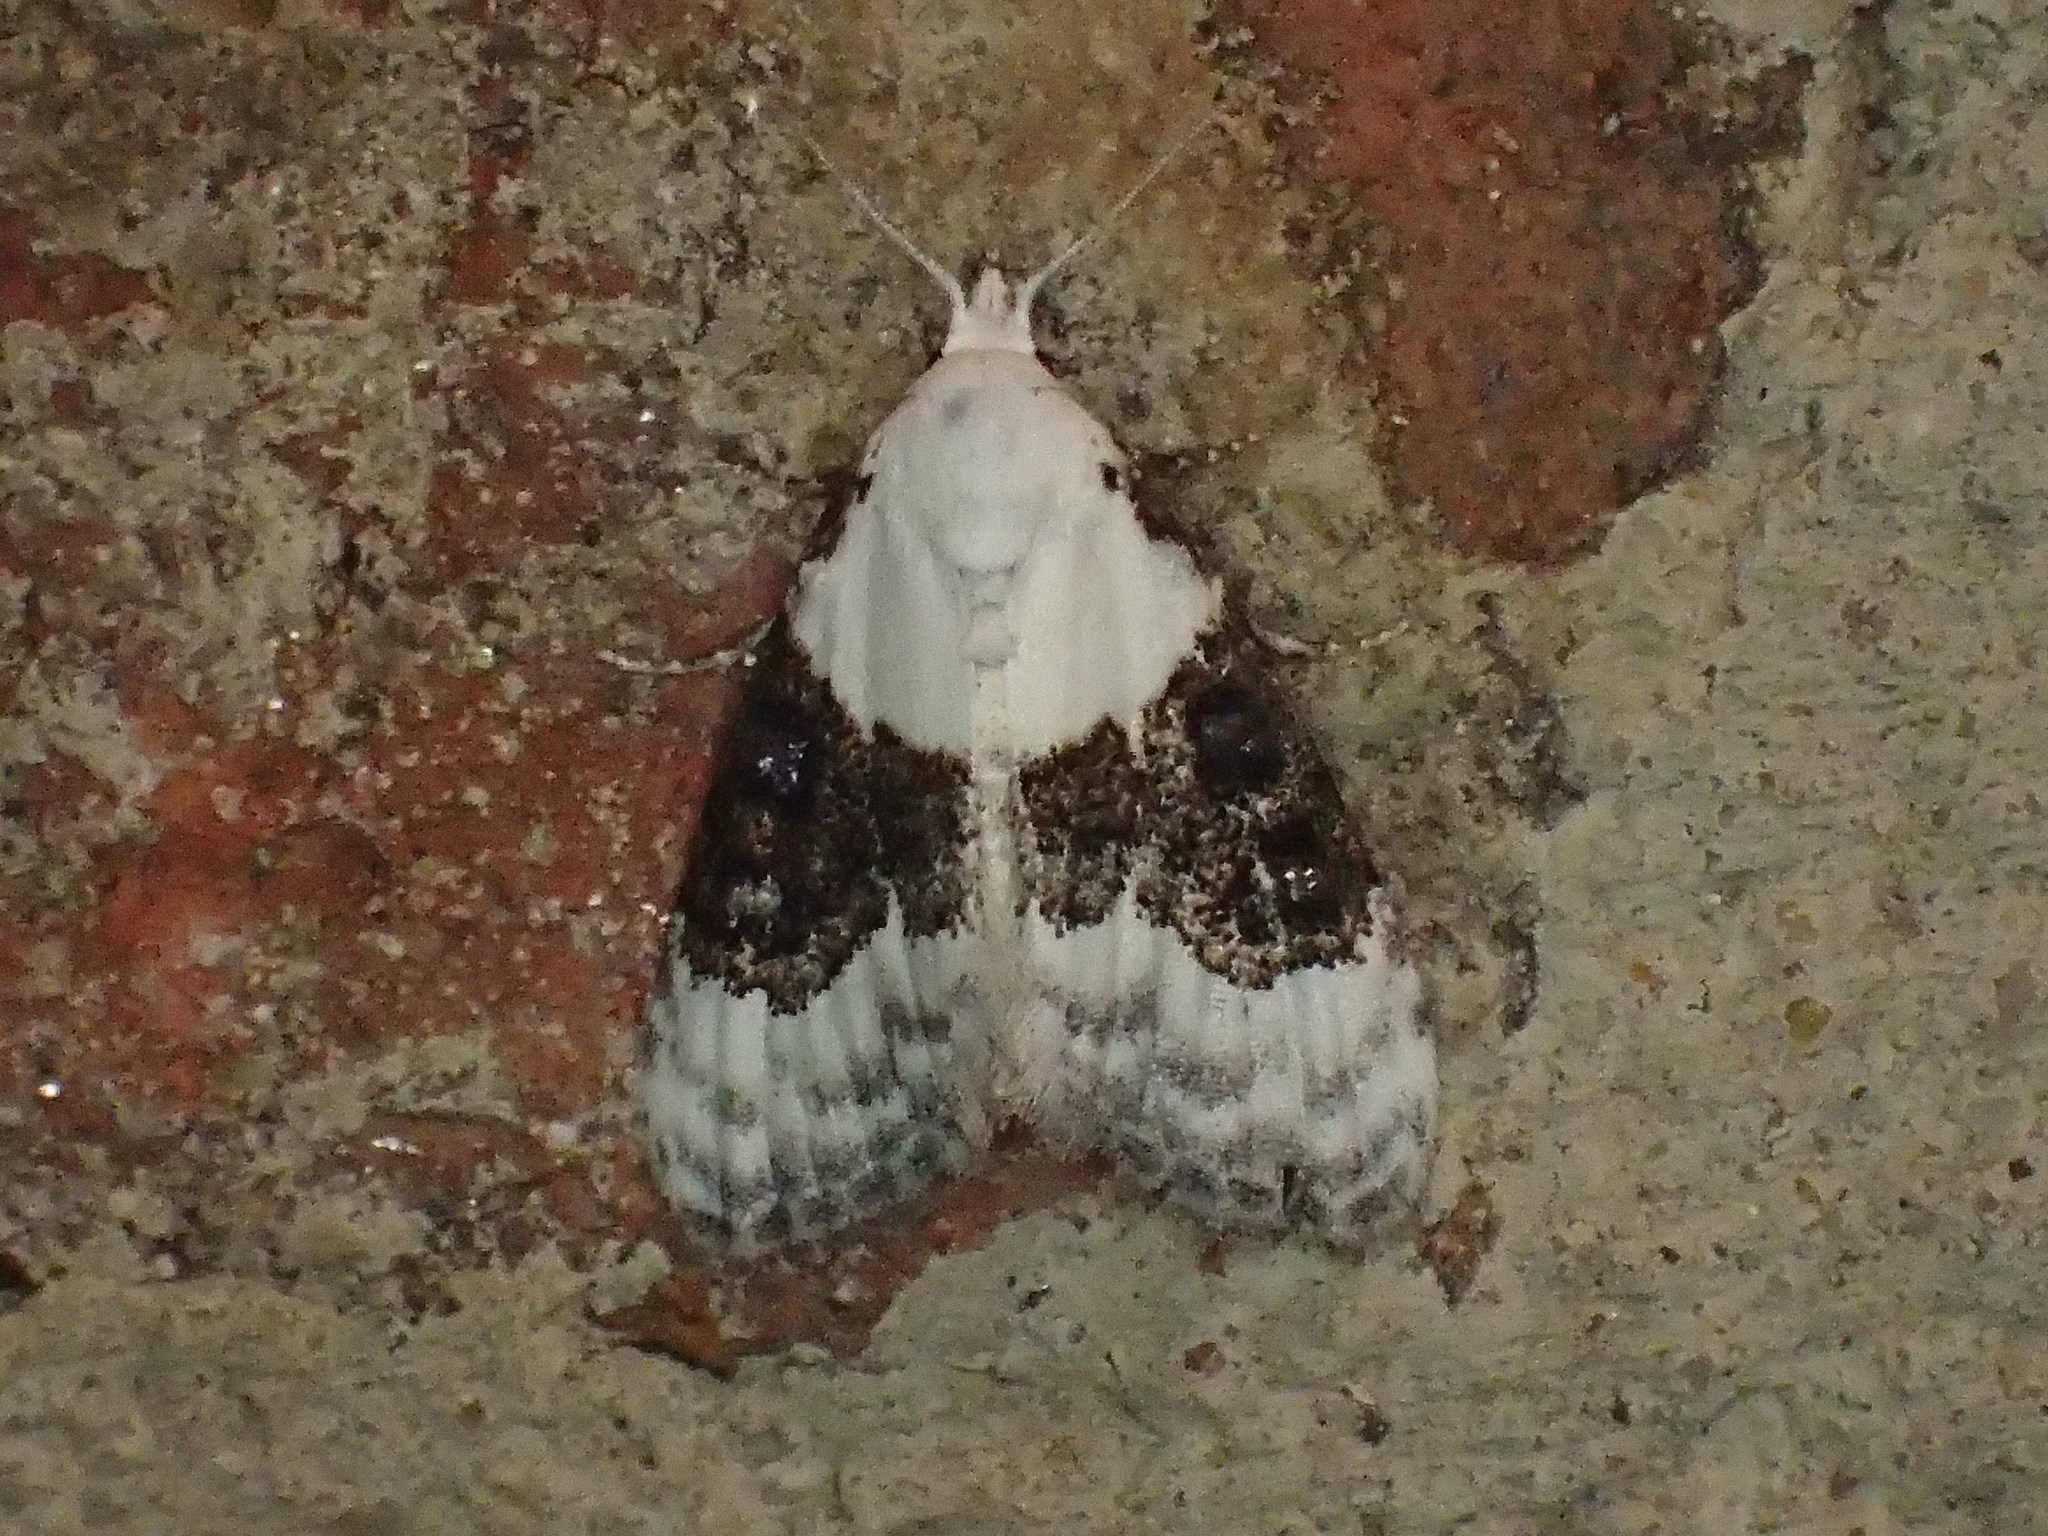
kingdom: Animalia
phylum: Arthropoda
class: Insecta
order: Lepidoptera
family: Nolidae
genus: Nola
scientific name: Nola pustulata
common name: Sharp-blotched nola moth
